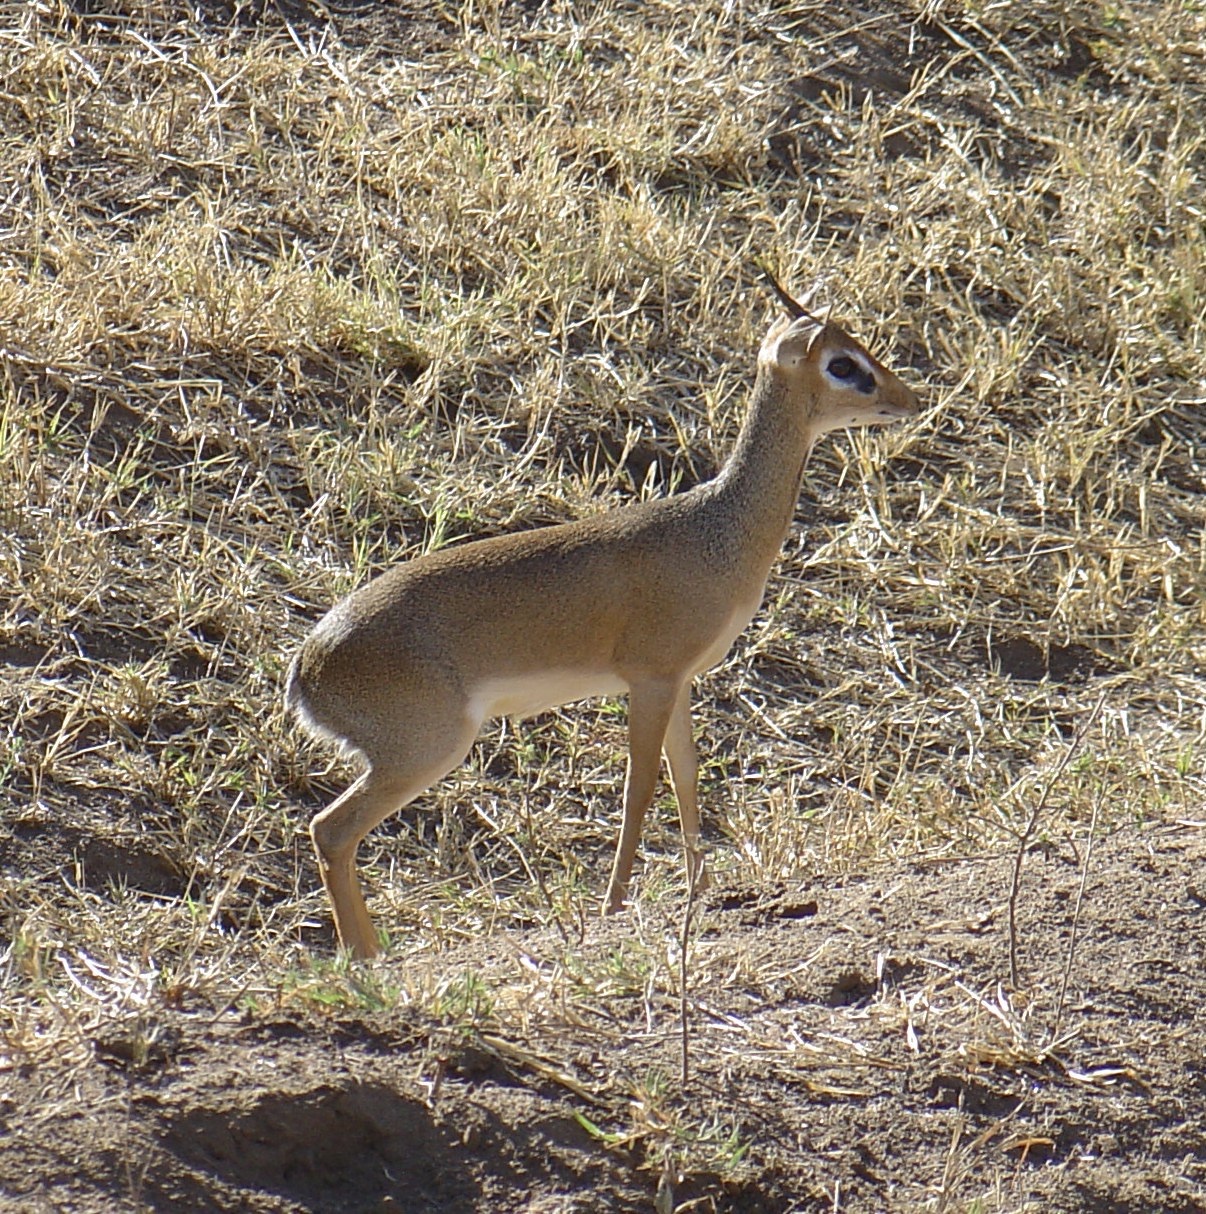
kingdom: Animalia
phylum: Chordata
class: Mammalia
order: Artiodactyla
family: Bovidae
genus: Madoqua
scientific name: Madoqua
